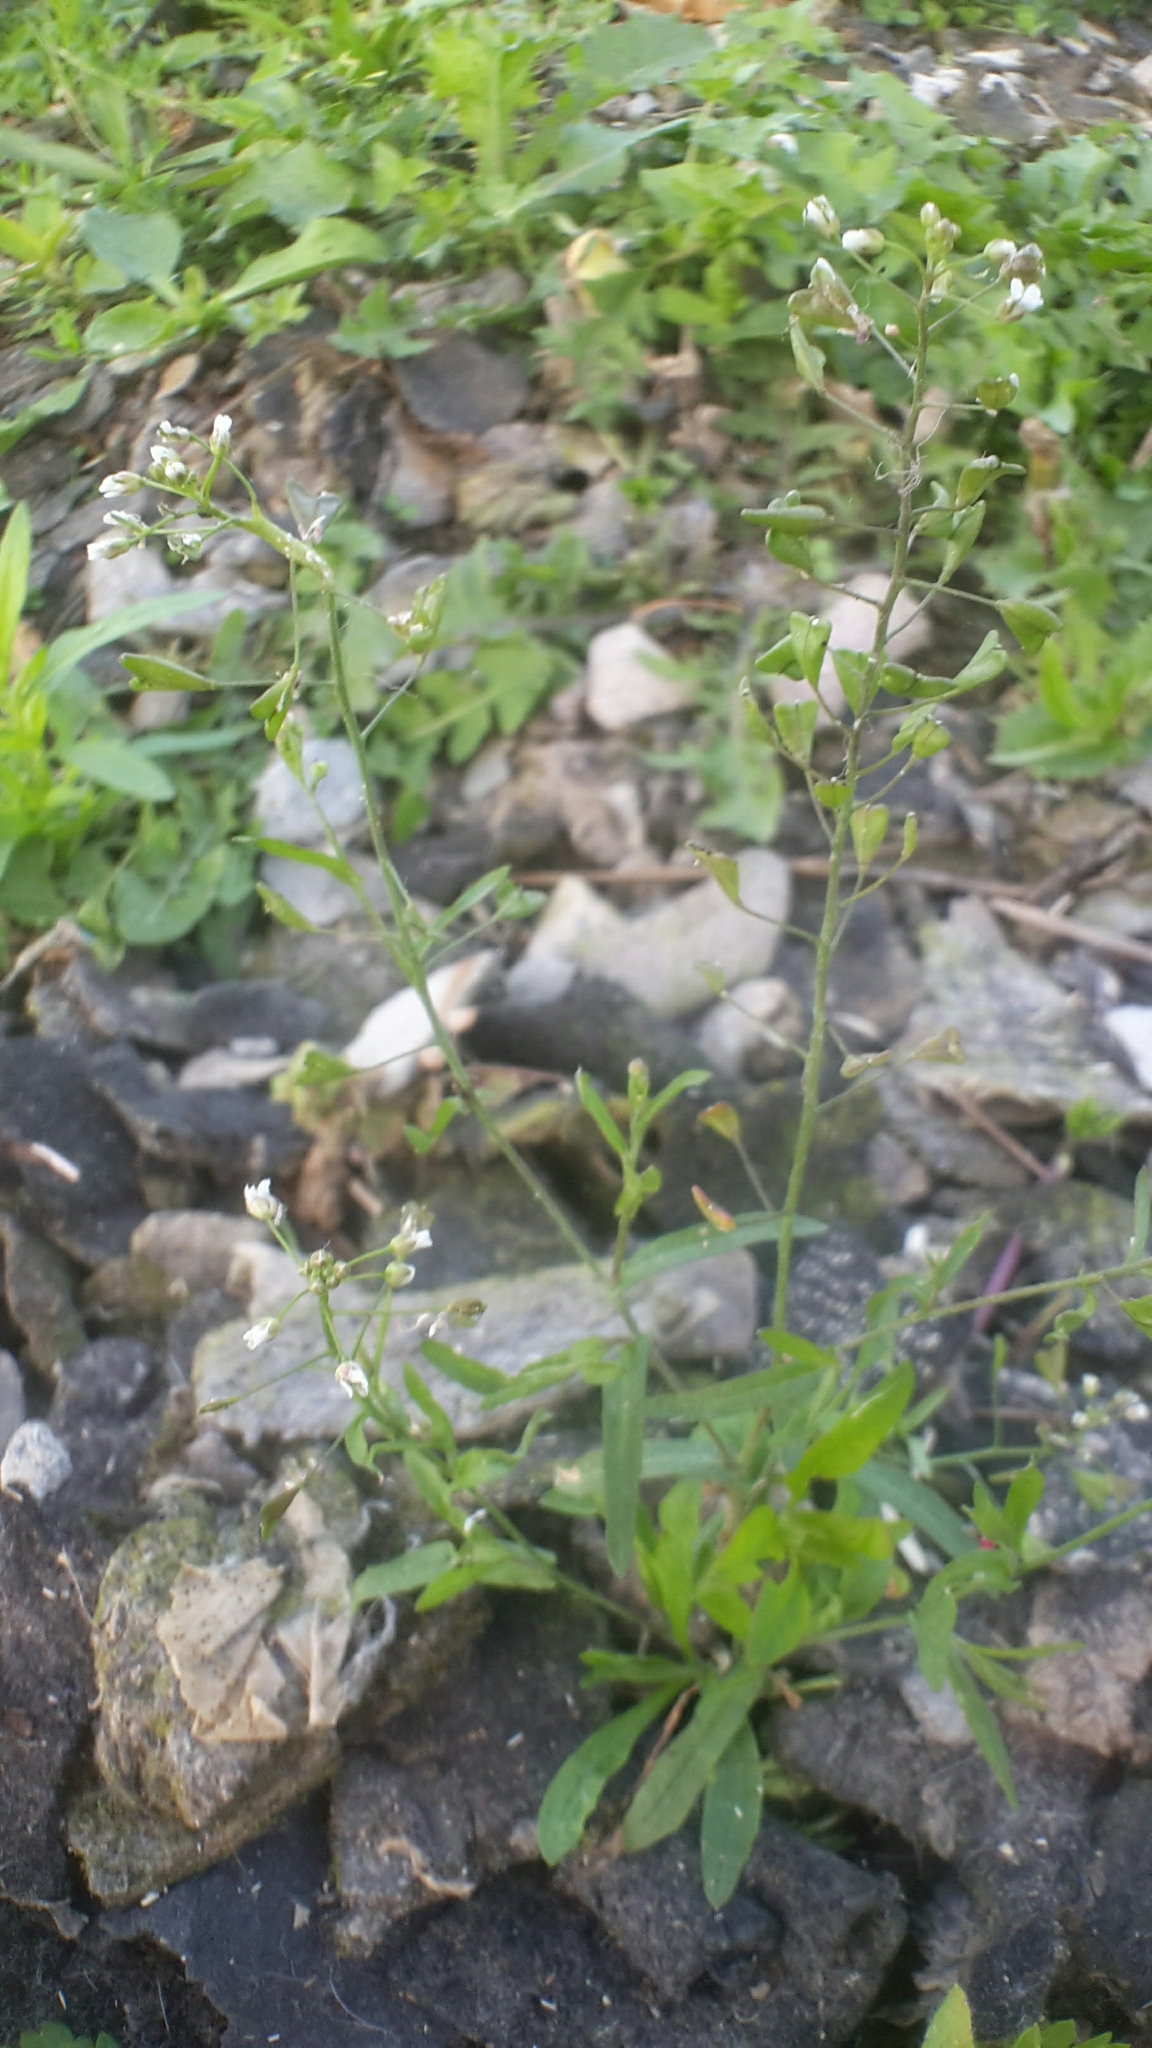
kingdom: Plantae
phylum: Tracheophyta
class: Magnoliopsida
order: Brassicales
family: Brassicaceae
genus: Capsella
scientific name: Capsella bursa-pastoris
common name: Shepherd's purse
